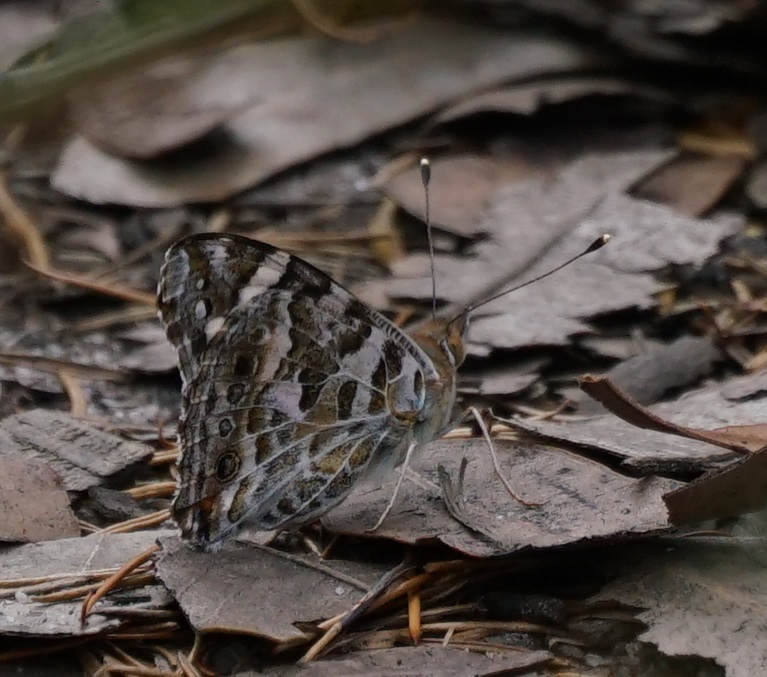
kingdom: Animalia
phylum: Arthropoda
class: Insecta
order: Lepidoptera
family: Nymphalidae
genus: Vanessa
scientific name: Vanessa kershawi
